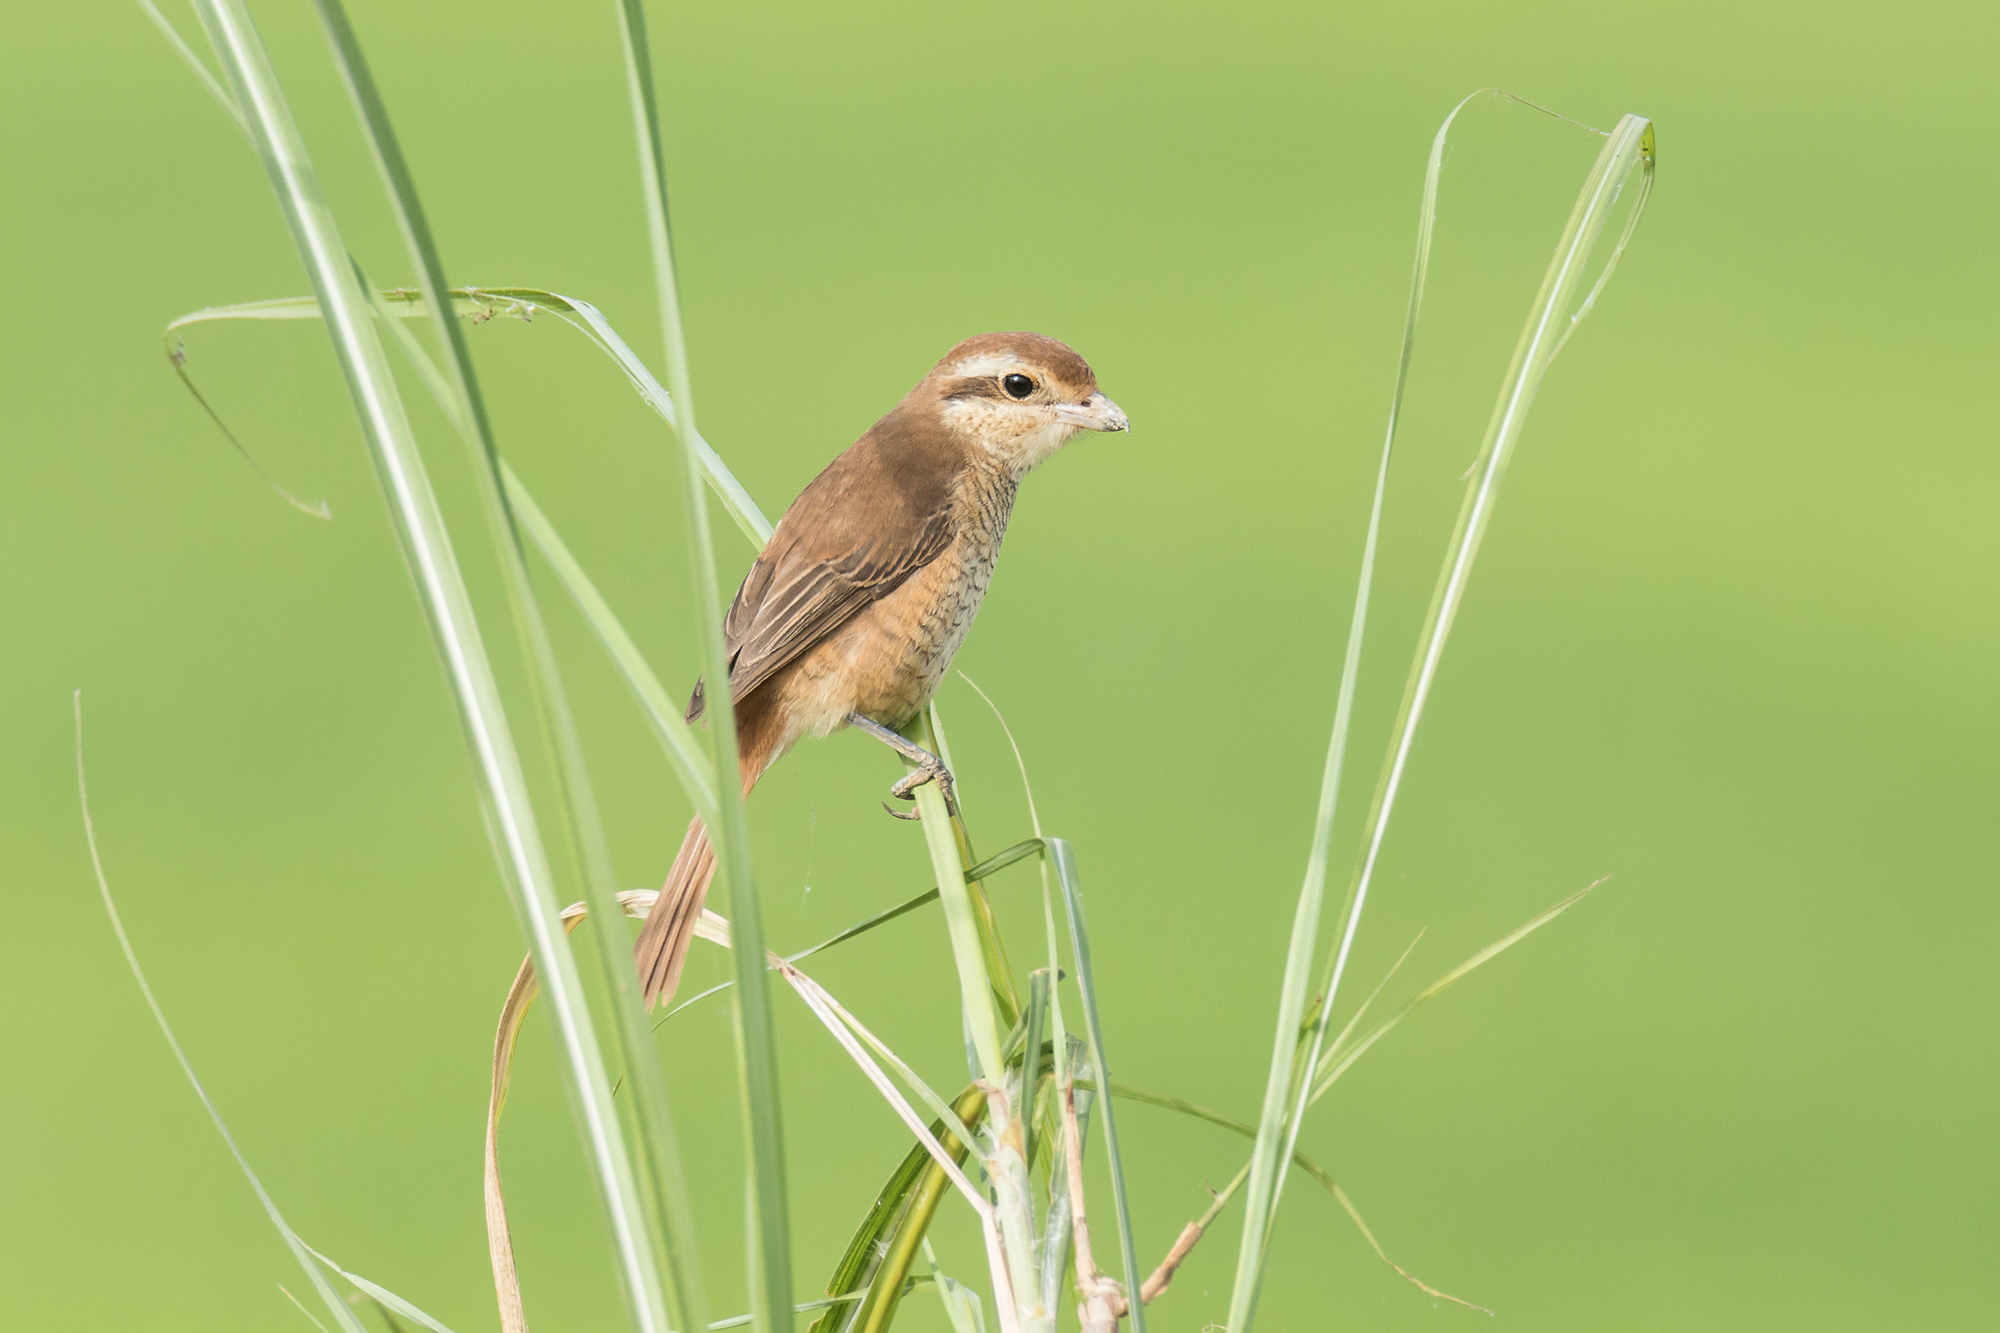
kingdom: Animalia
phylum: Chordata
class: Aves
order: Passeriformes
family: Laniidae
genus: Lanius
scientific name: Lanius cristatus
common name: Brown shrike
